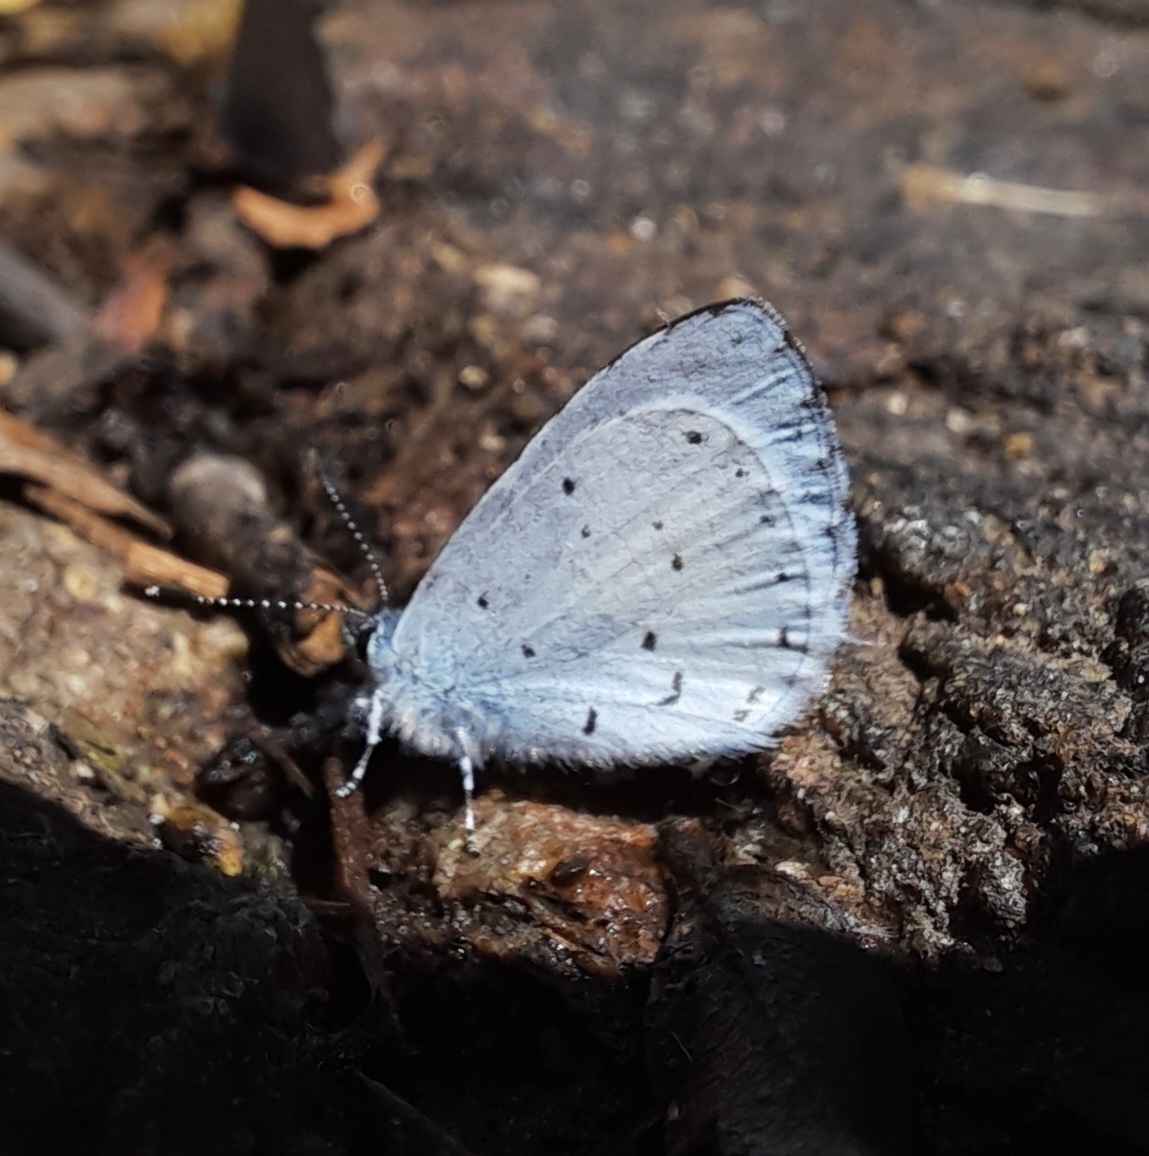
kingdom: Animalia
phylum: Arthropoda
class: Insecta
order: Lepidoptera
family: Lycaenidae
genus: Udara
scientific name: Udara akasa
